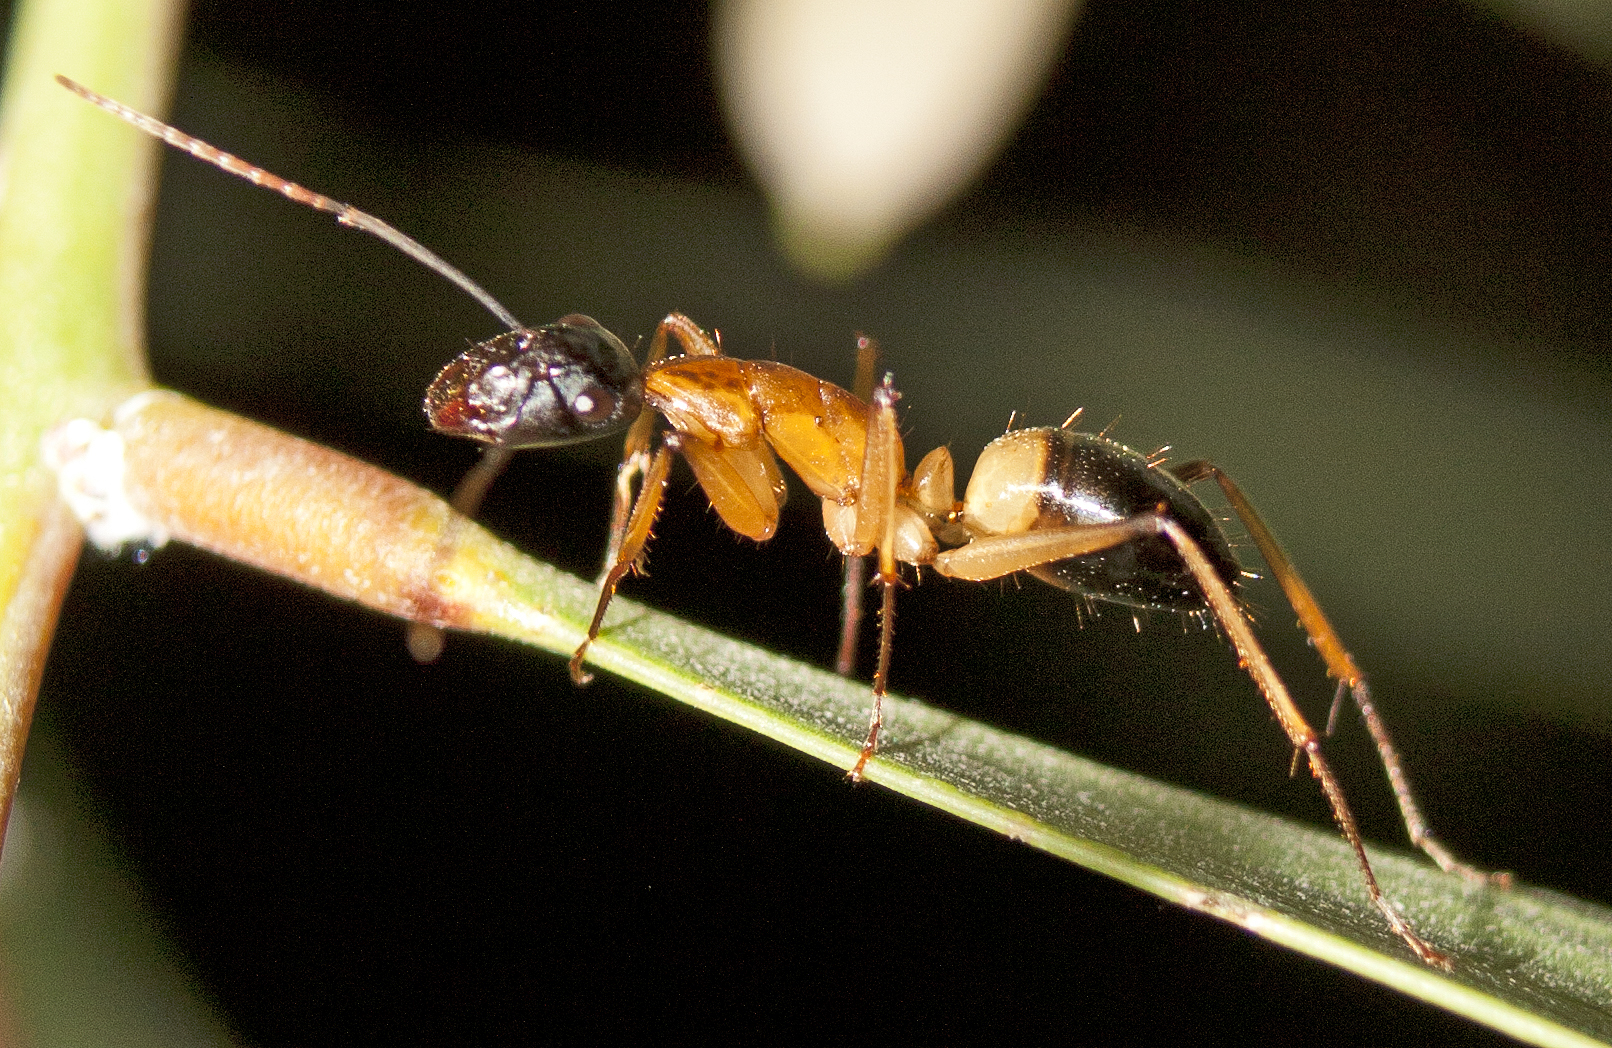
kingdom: Animalia
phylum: Arthropoda
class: Insecta
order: Hymenoptera
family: Formicidae
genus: Camponotus
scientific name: Camponotus consobrinus
